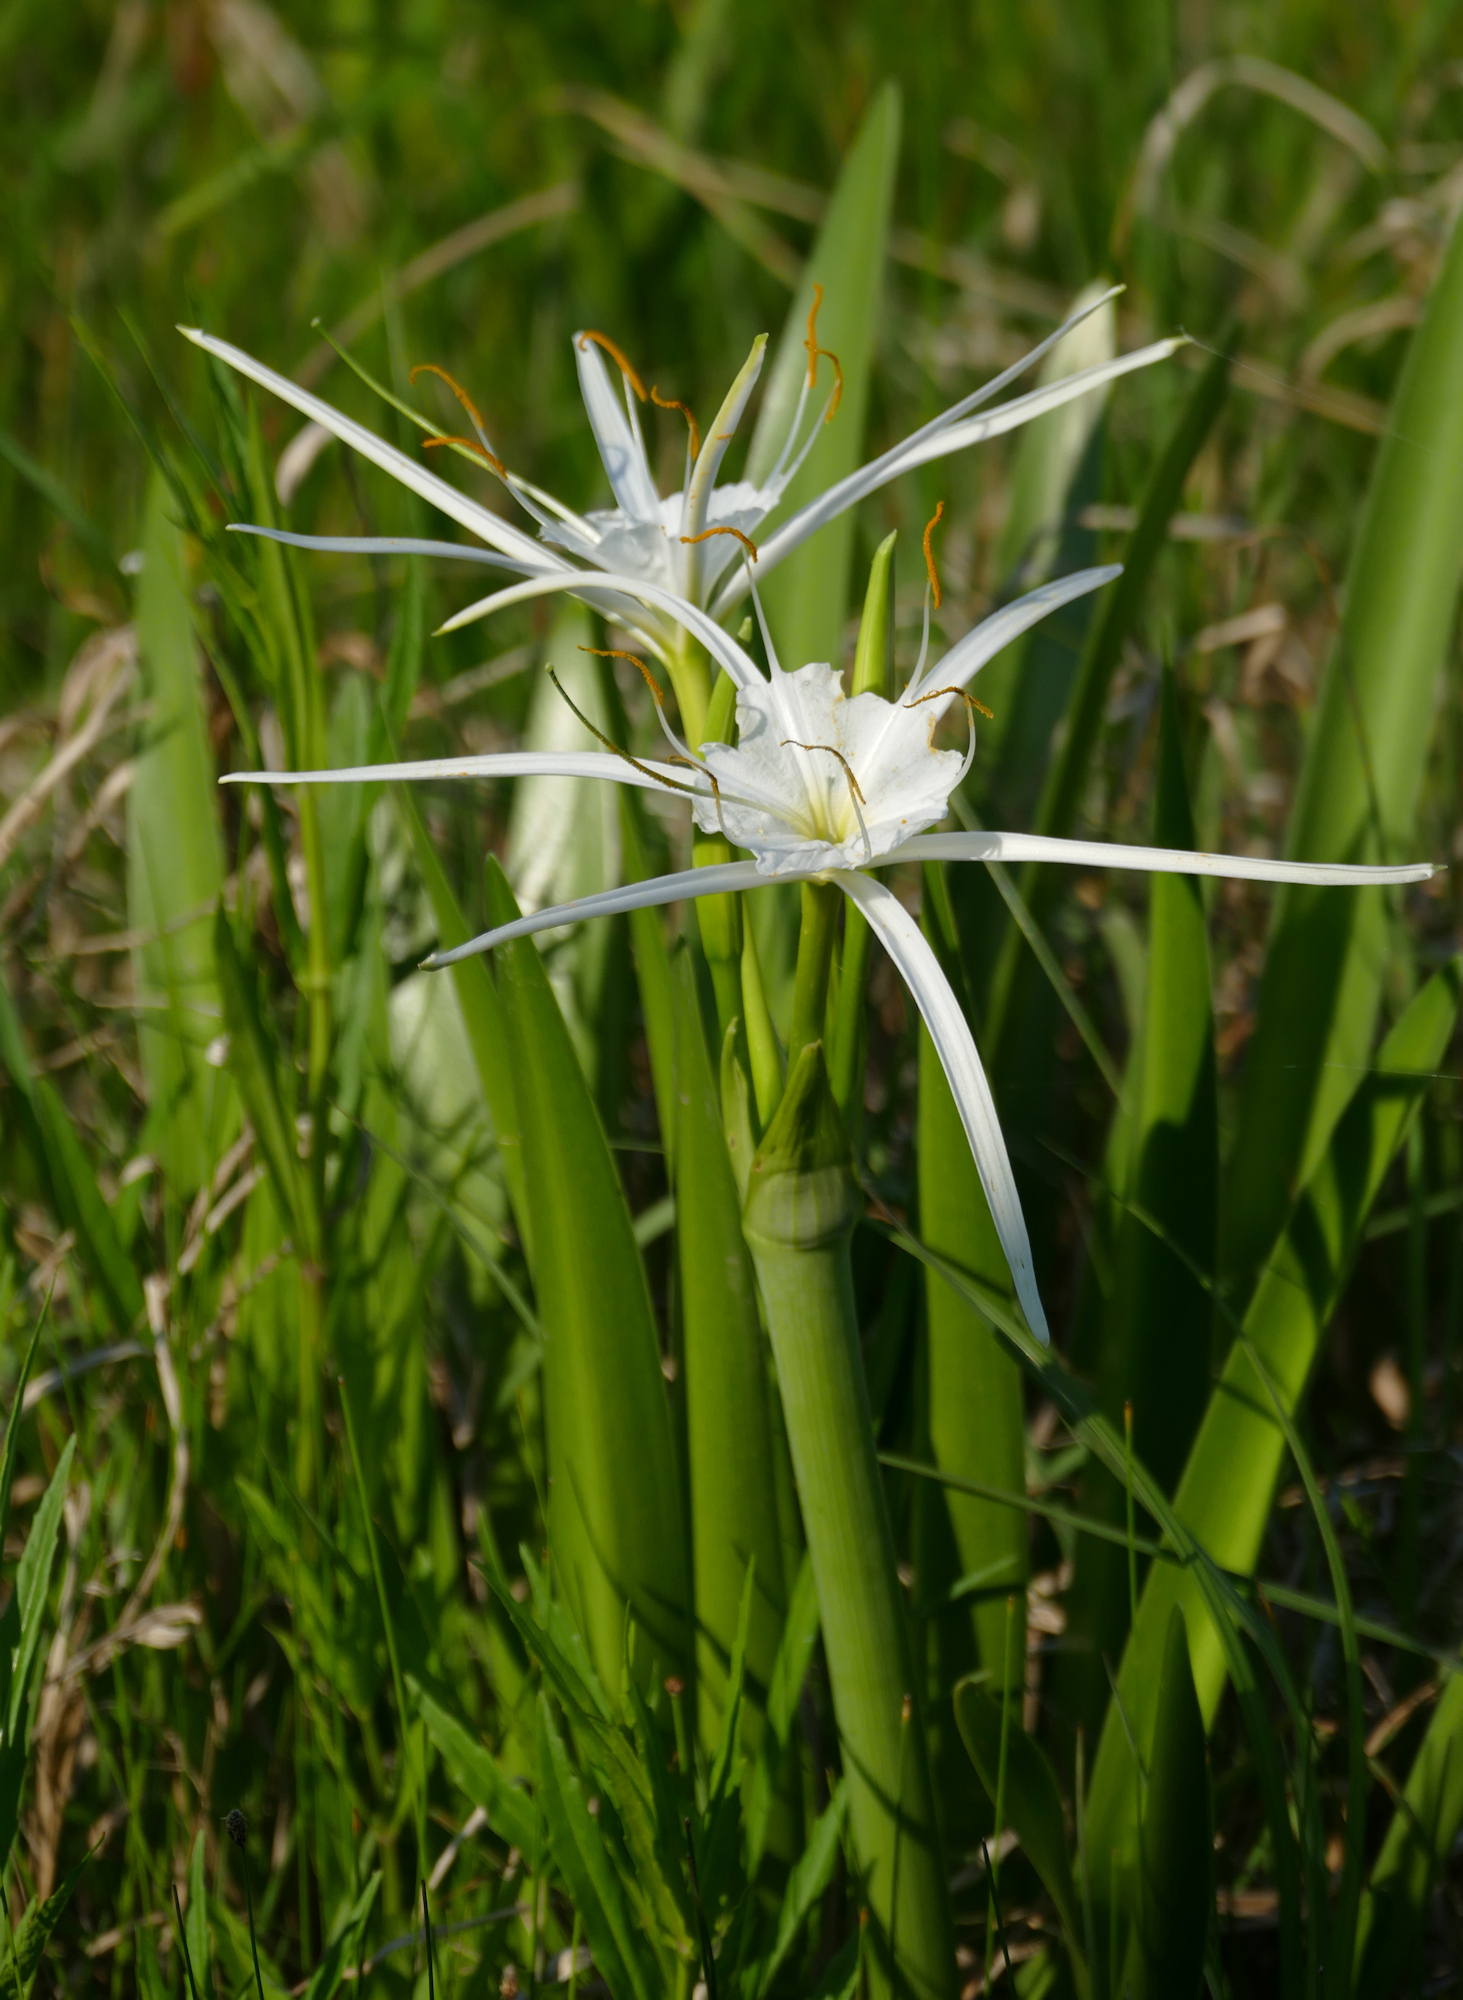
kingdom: Plantae
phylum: Tracheophyta
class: Liliopsida
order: Asparagales
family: Amaryllidaceae
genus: Hymenocallis
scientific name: Hymenocallis liriosme
